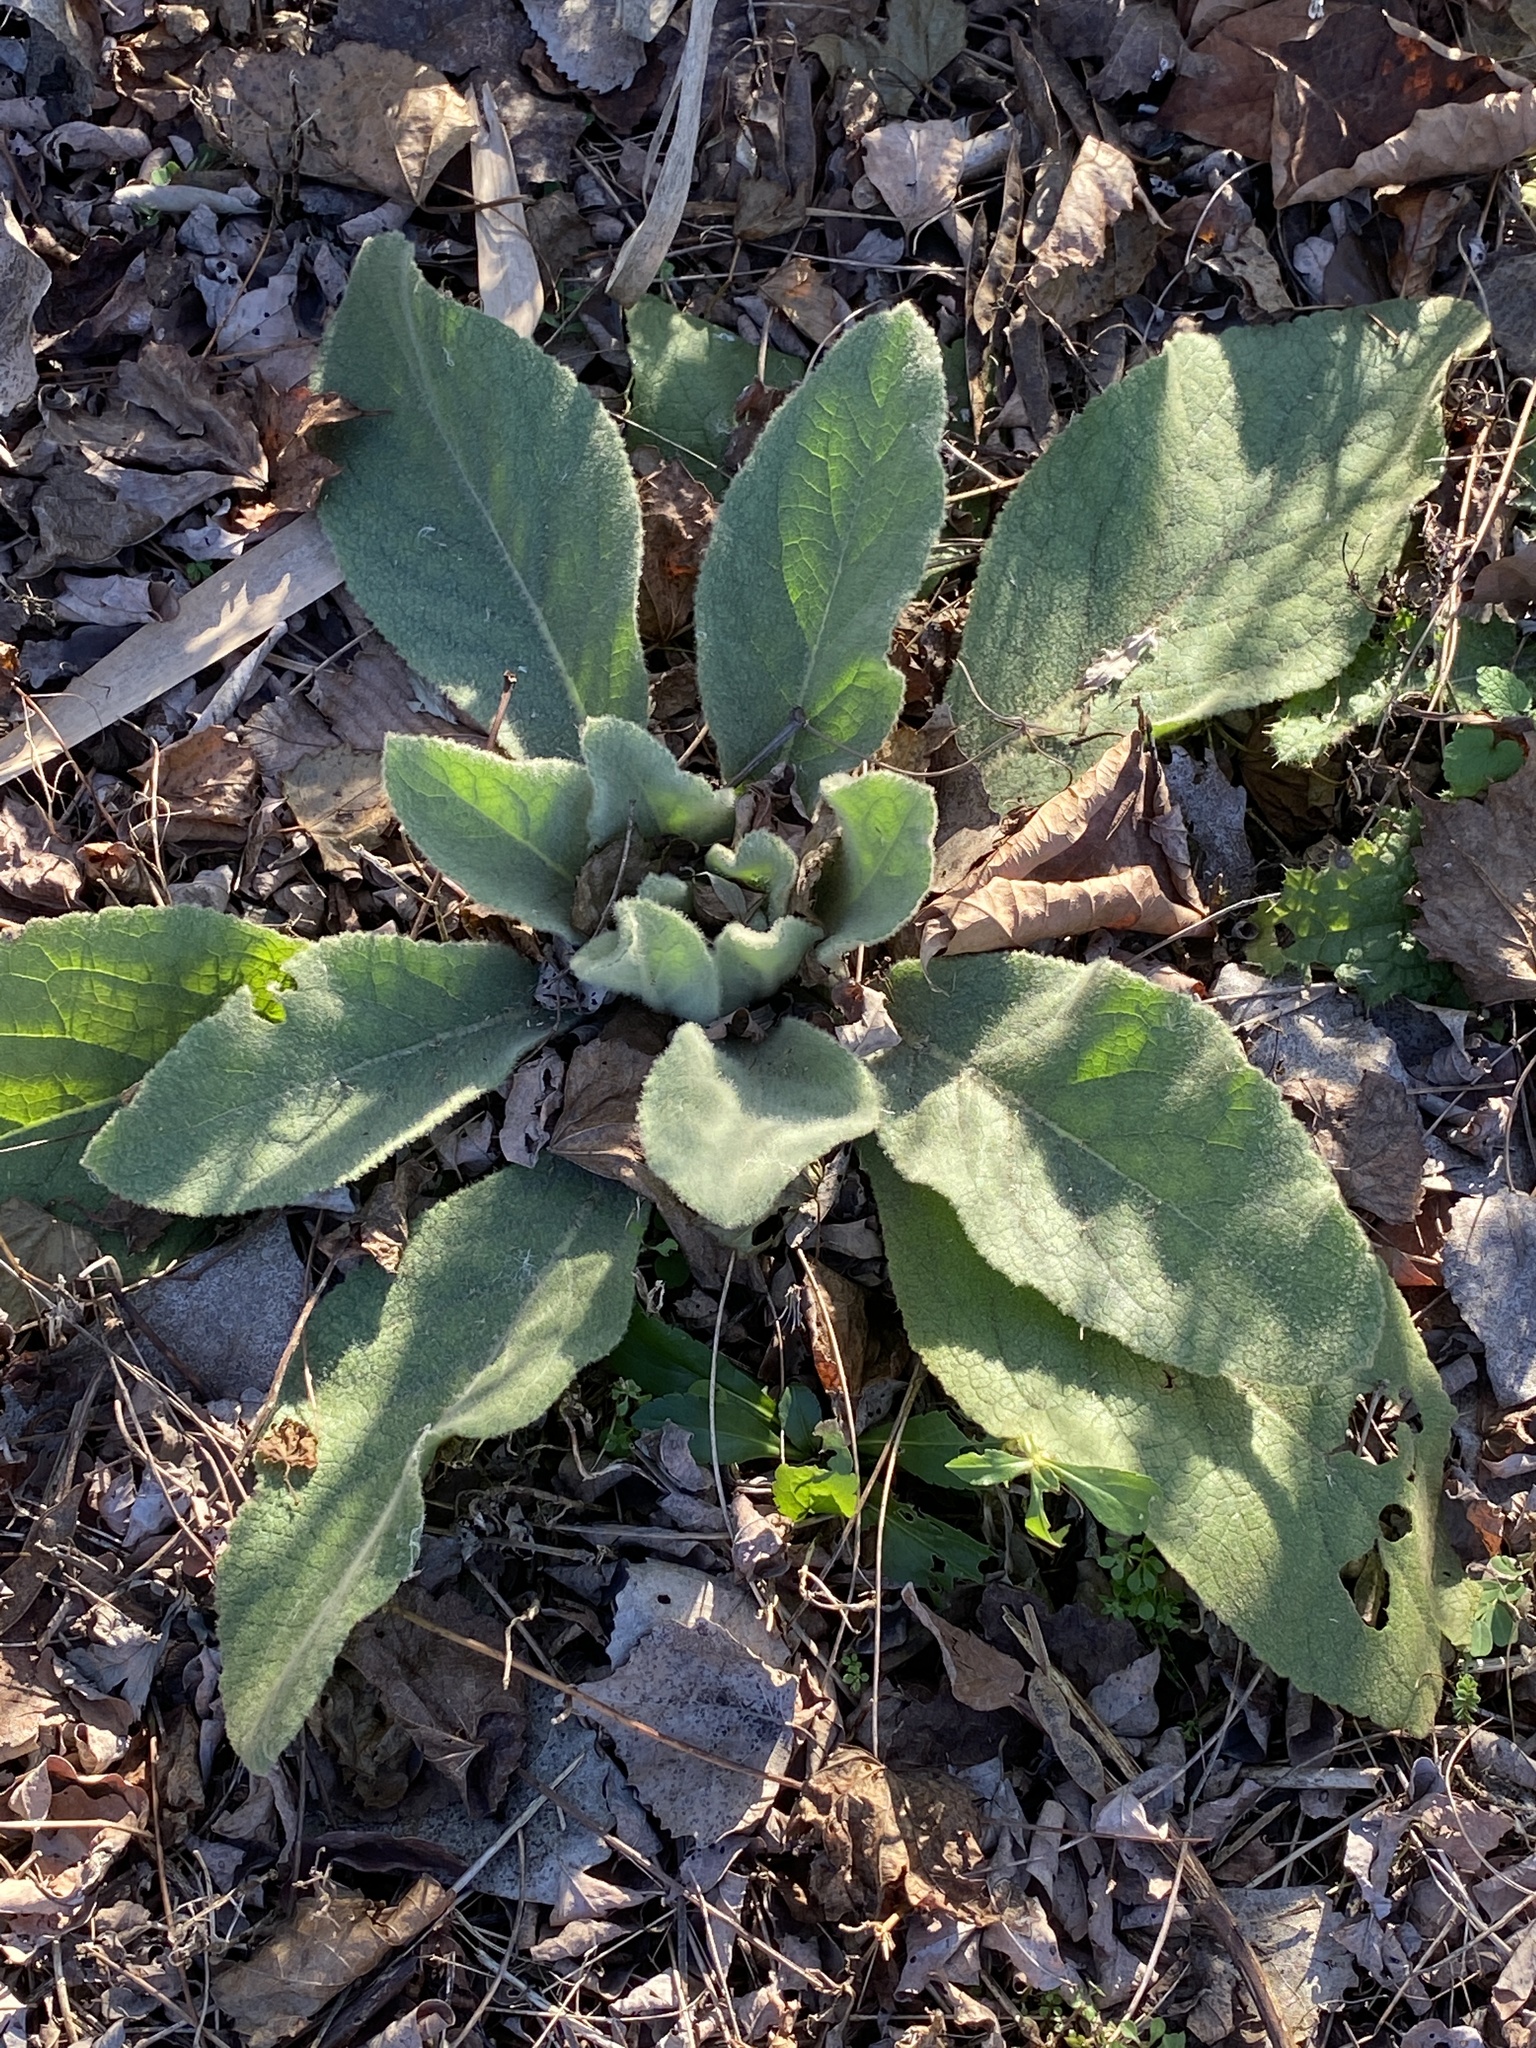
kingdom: Plantae
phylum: Tracheophyta
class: Magnoliopsida
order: Lamiales
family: Scrophulariaceae
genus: Verbascum
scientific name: Verbascum thapsus
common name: Common mullein
